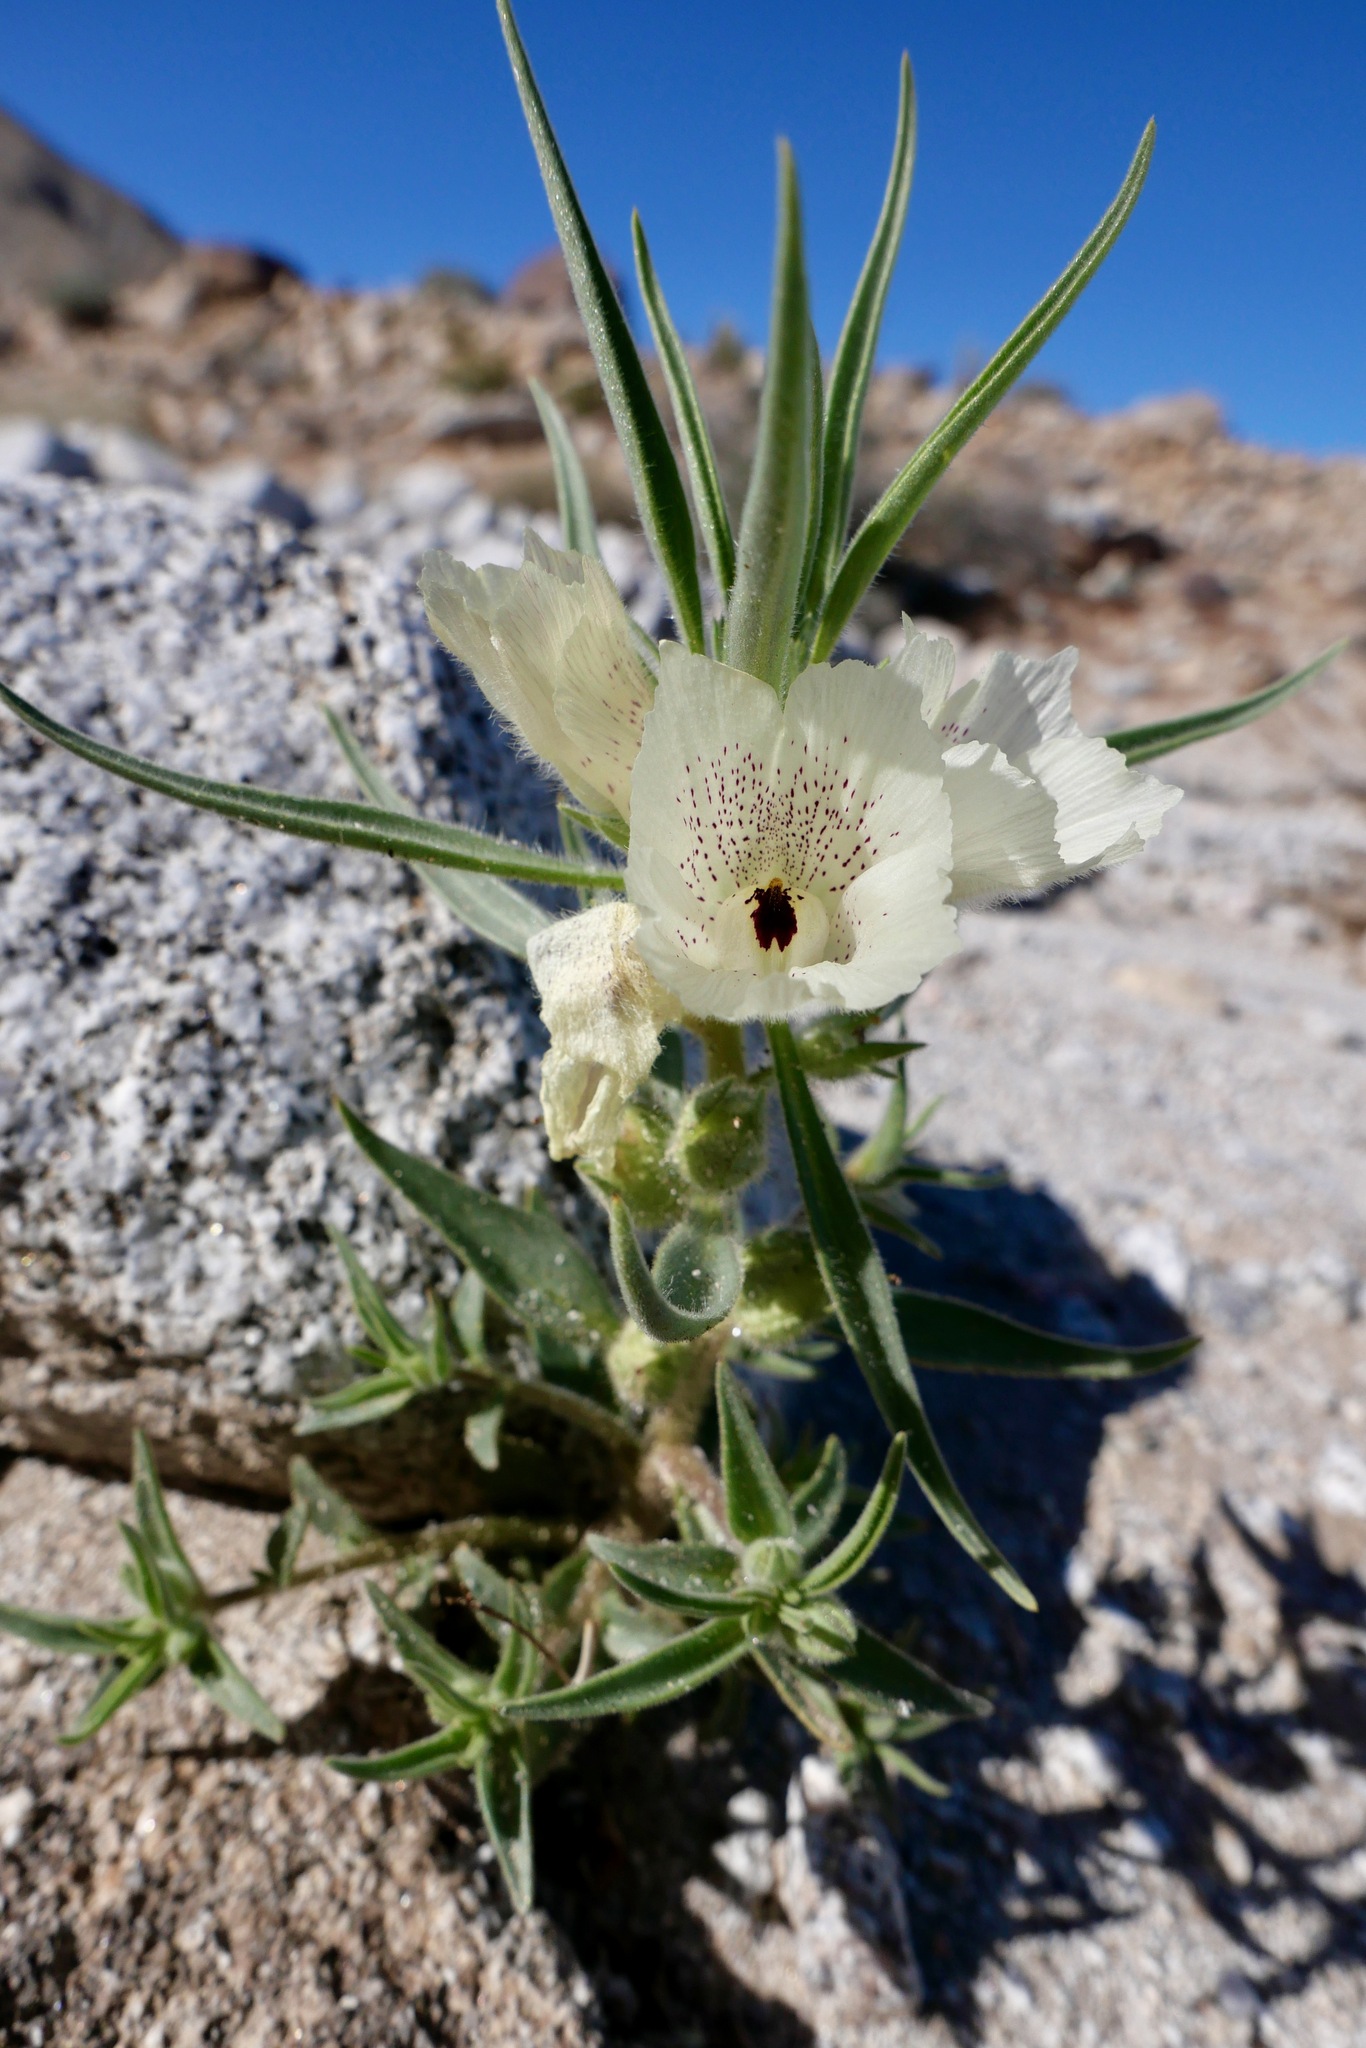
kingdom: Plantae
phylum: Tracheophyta
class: Magnoliopsida
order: Lamiales
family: Plantaginaceae
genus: Mohavea
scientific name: Mohavea confertiflora
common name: Ghost flower
